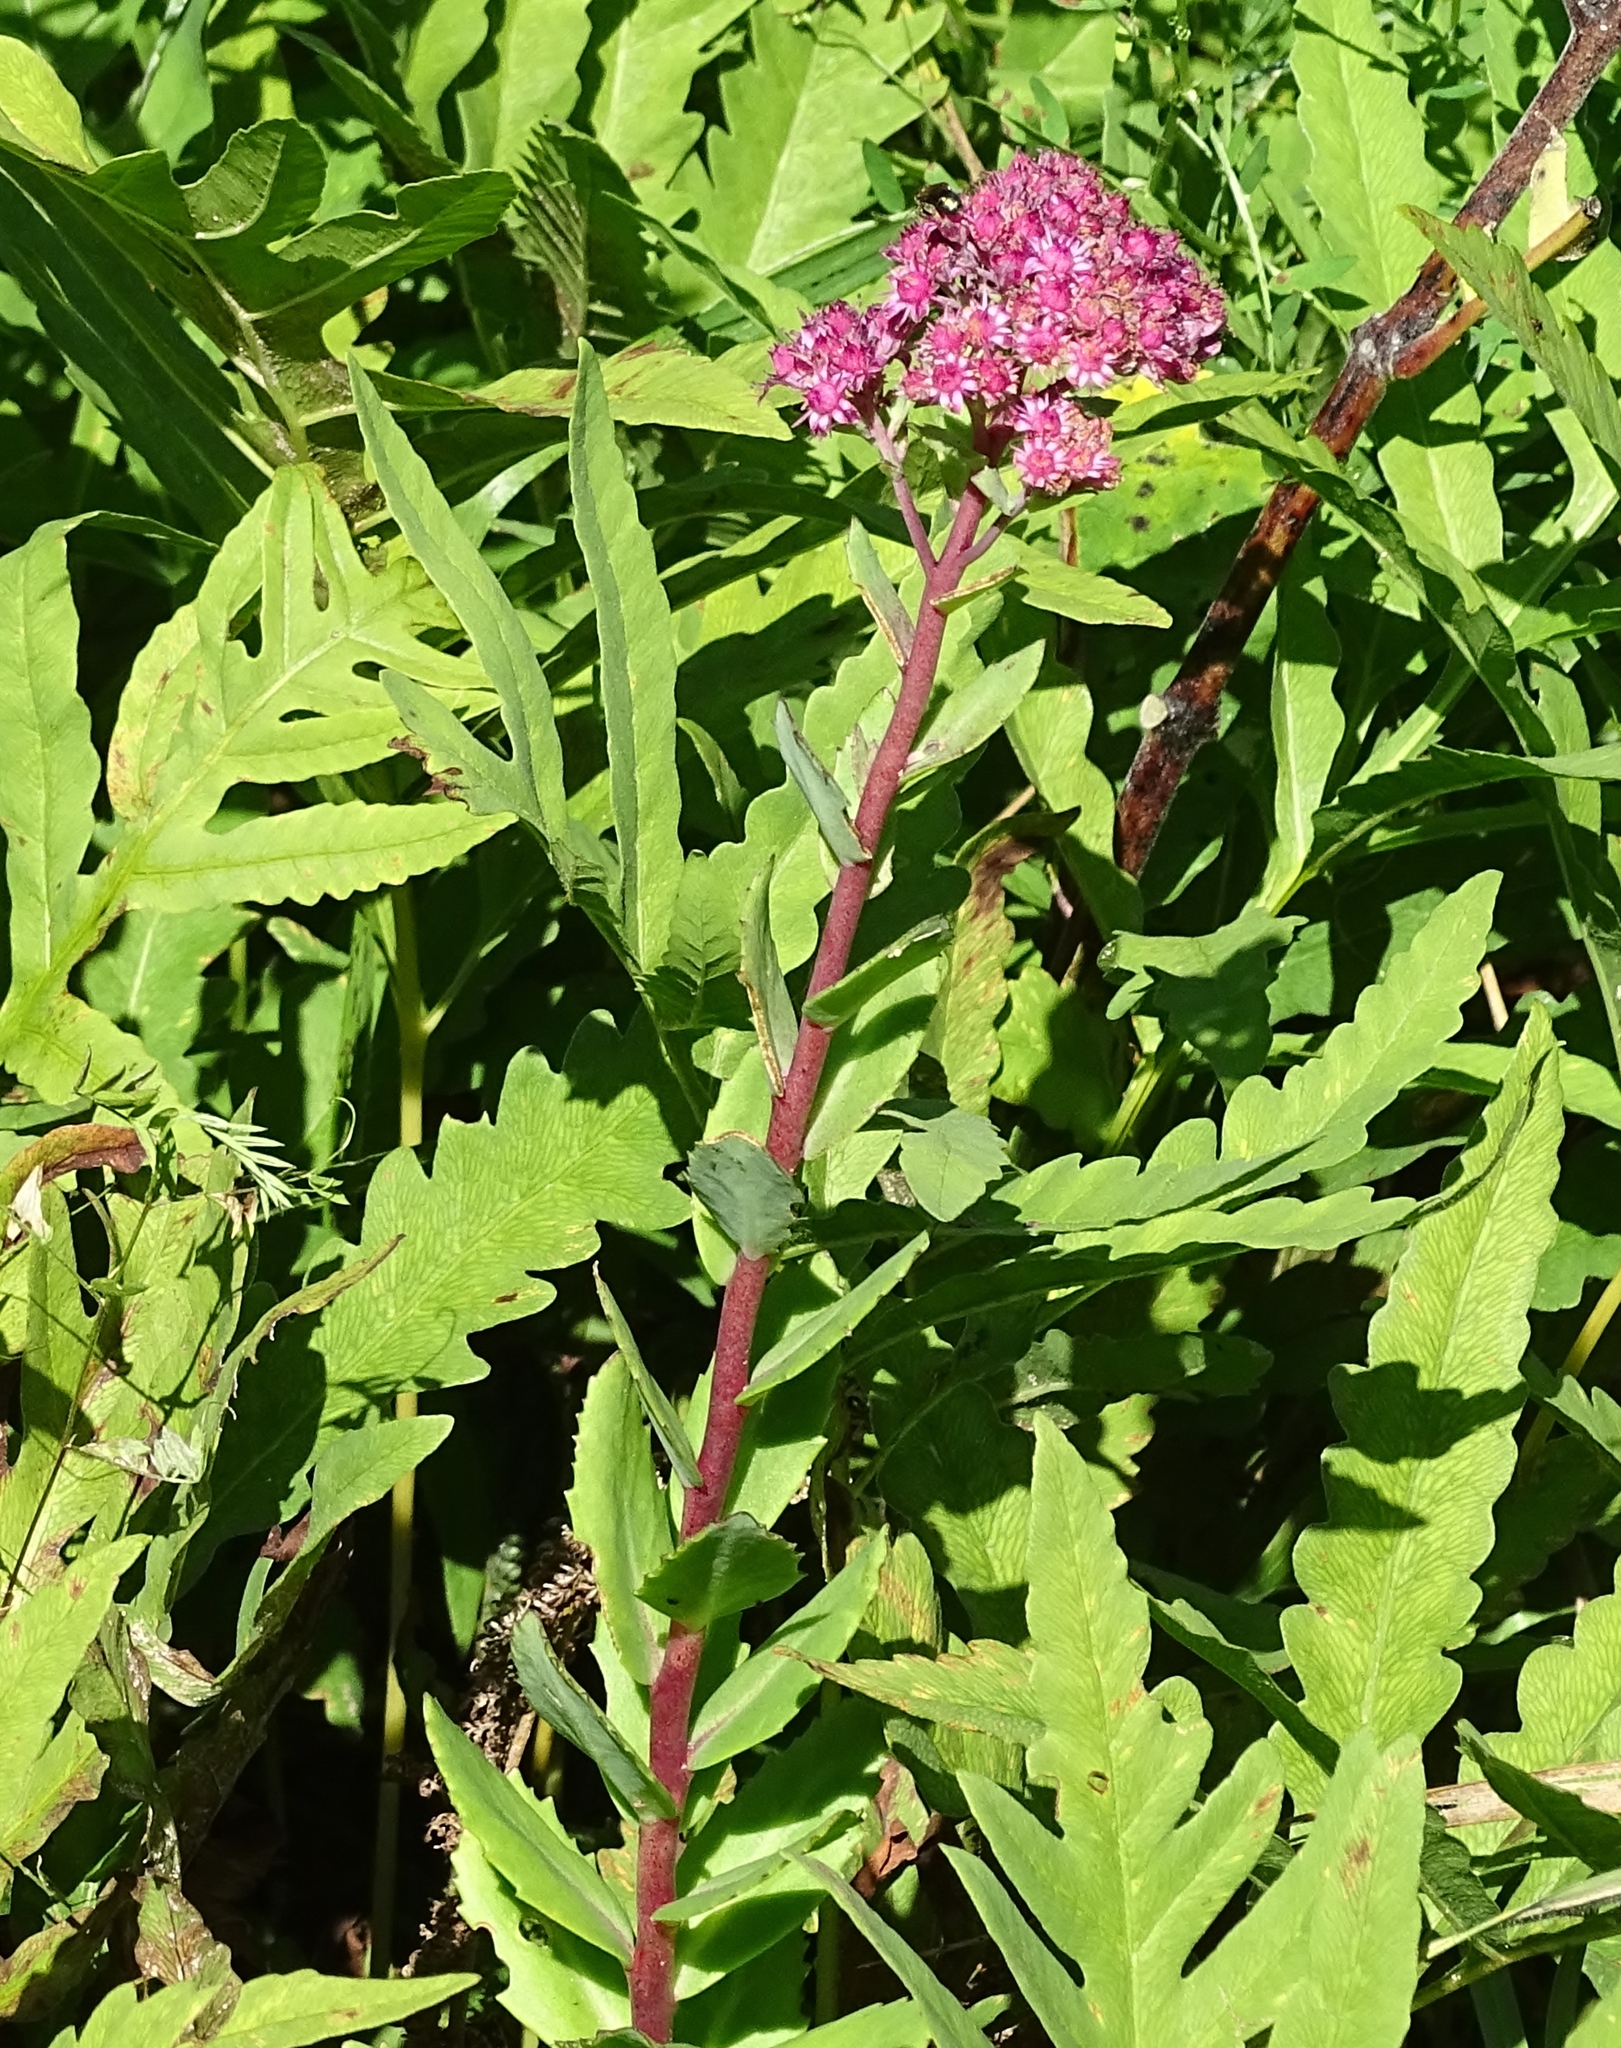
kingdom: Plantae
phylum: Tracheophyta
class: Magnoliopsida
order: Saxifragales
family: Crassulaceae
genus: Hylotelephium
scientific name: Hylotelephium telephium
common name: Live-forever
